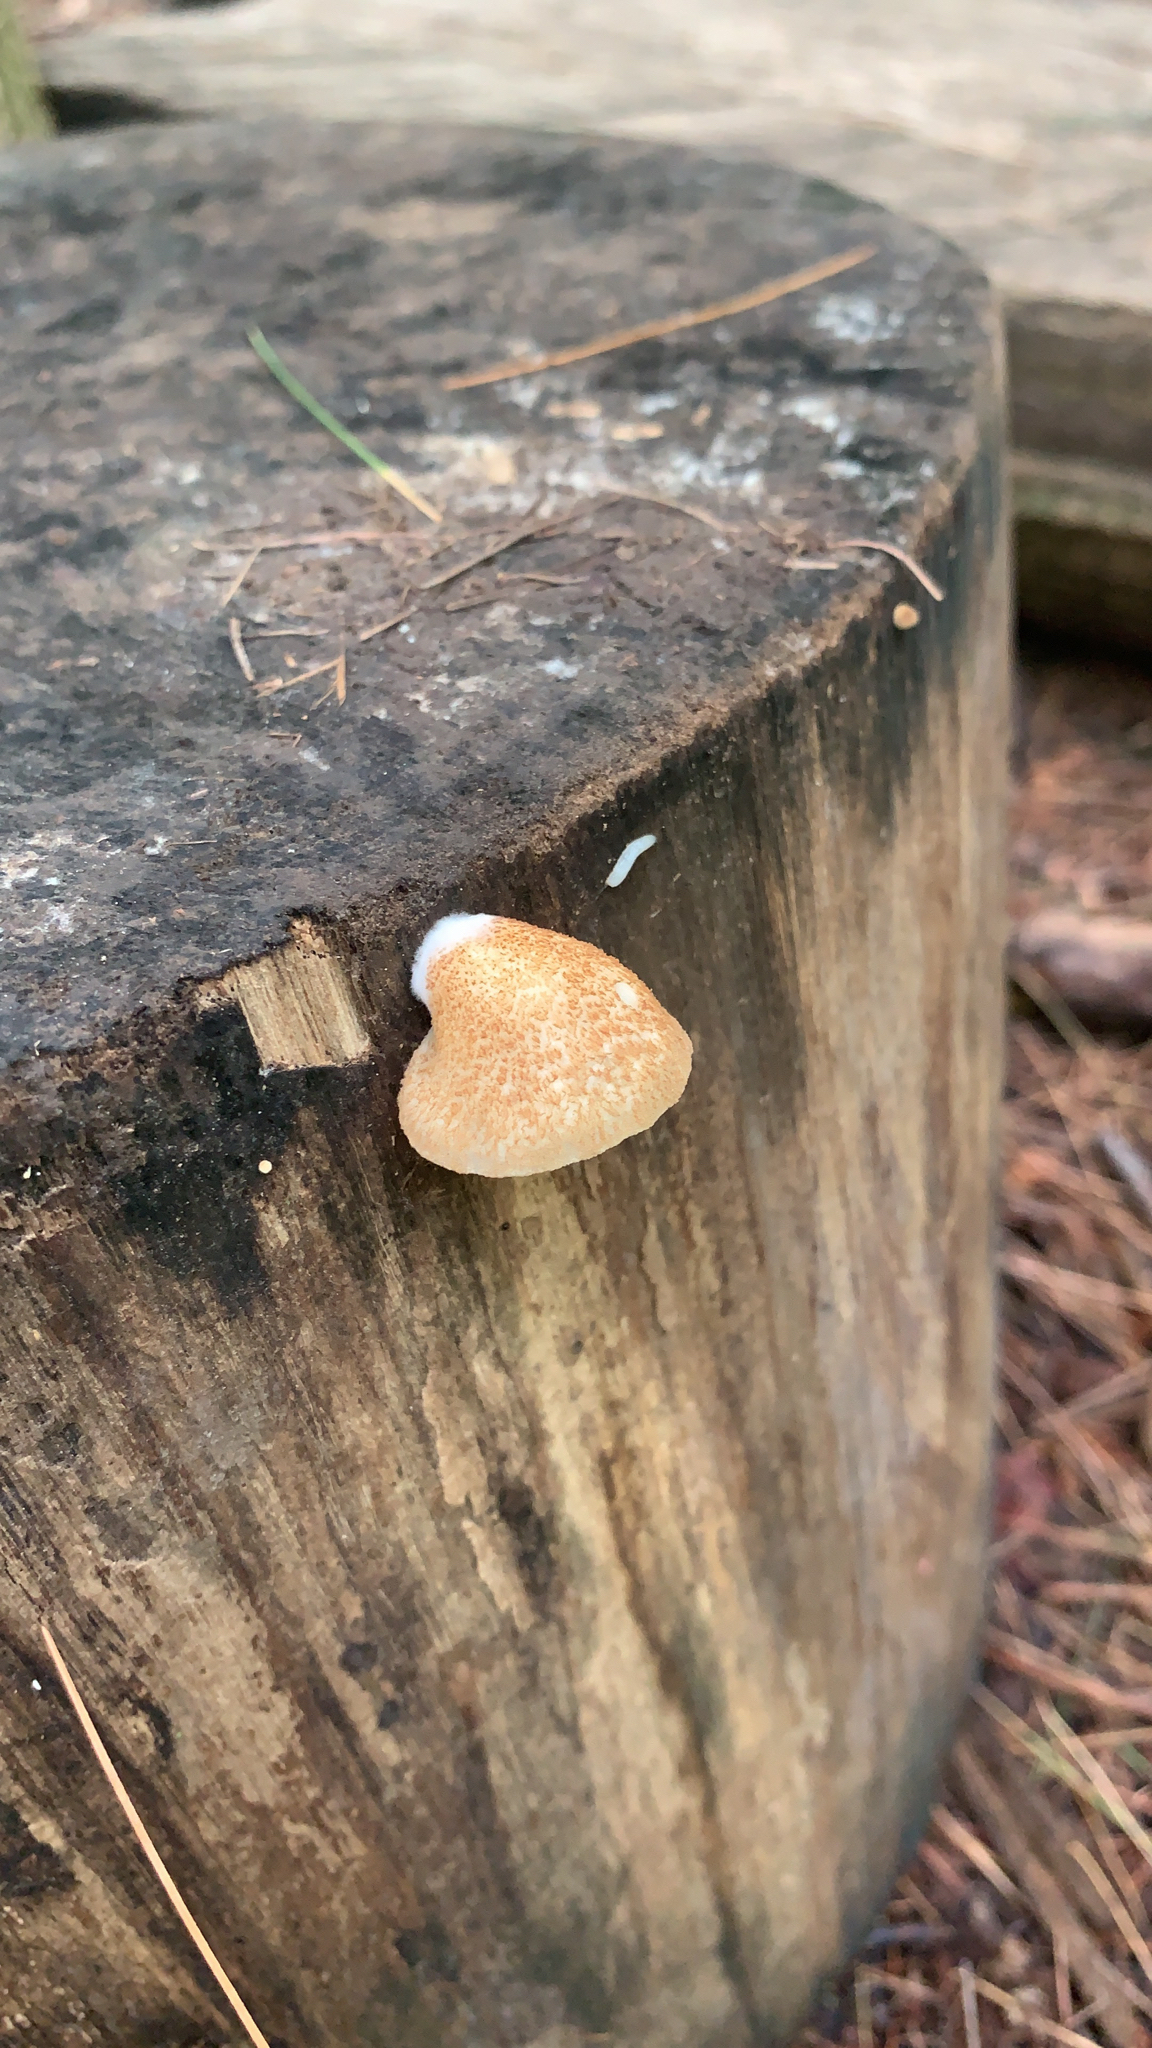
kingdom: Fungi
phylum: Basidiomycota
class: Agaricomycetes
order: Agaricales
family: Crepidotaceae
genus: Crepidotus
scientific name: Crepidotus calolepis
